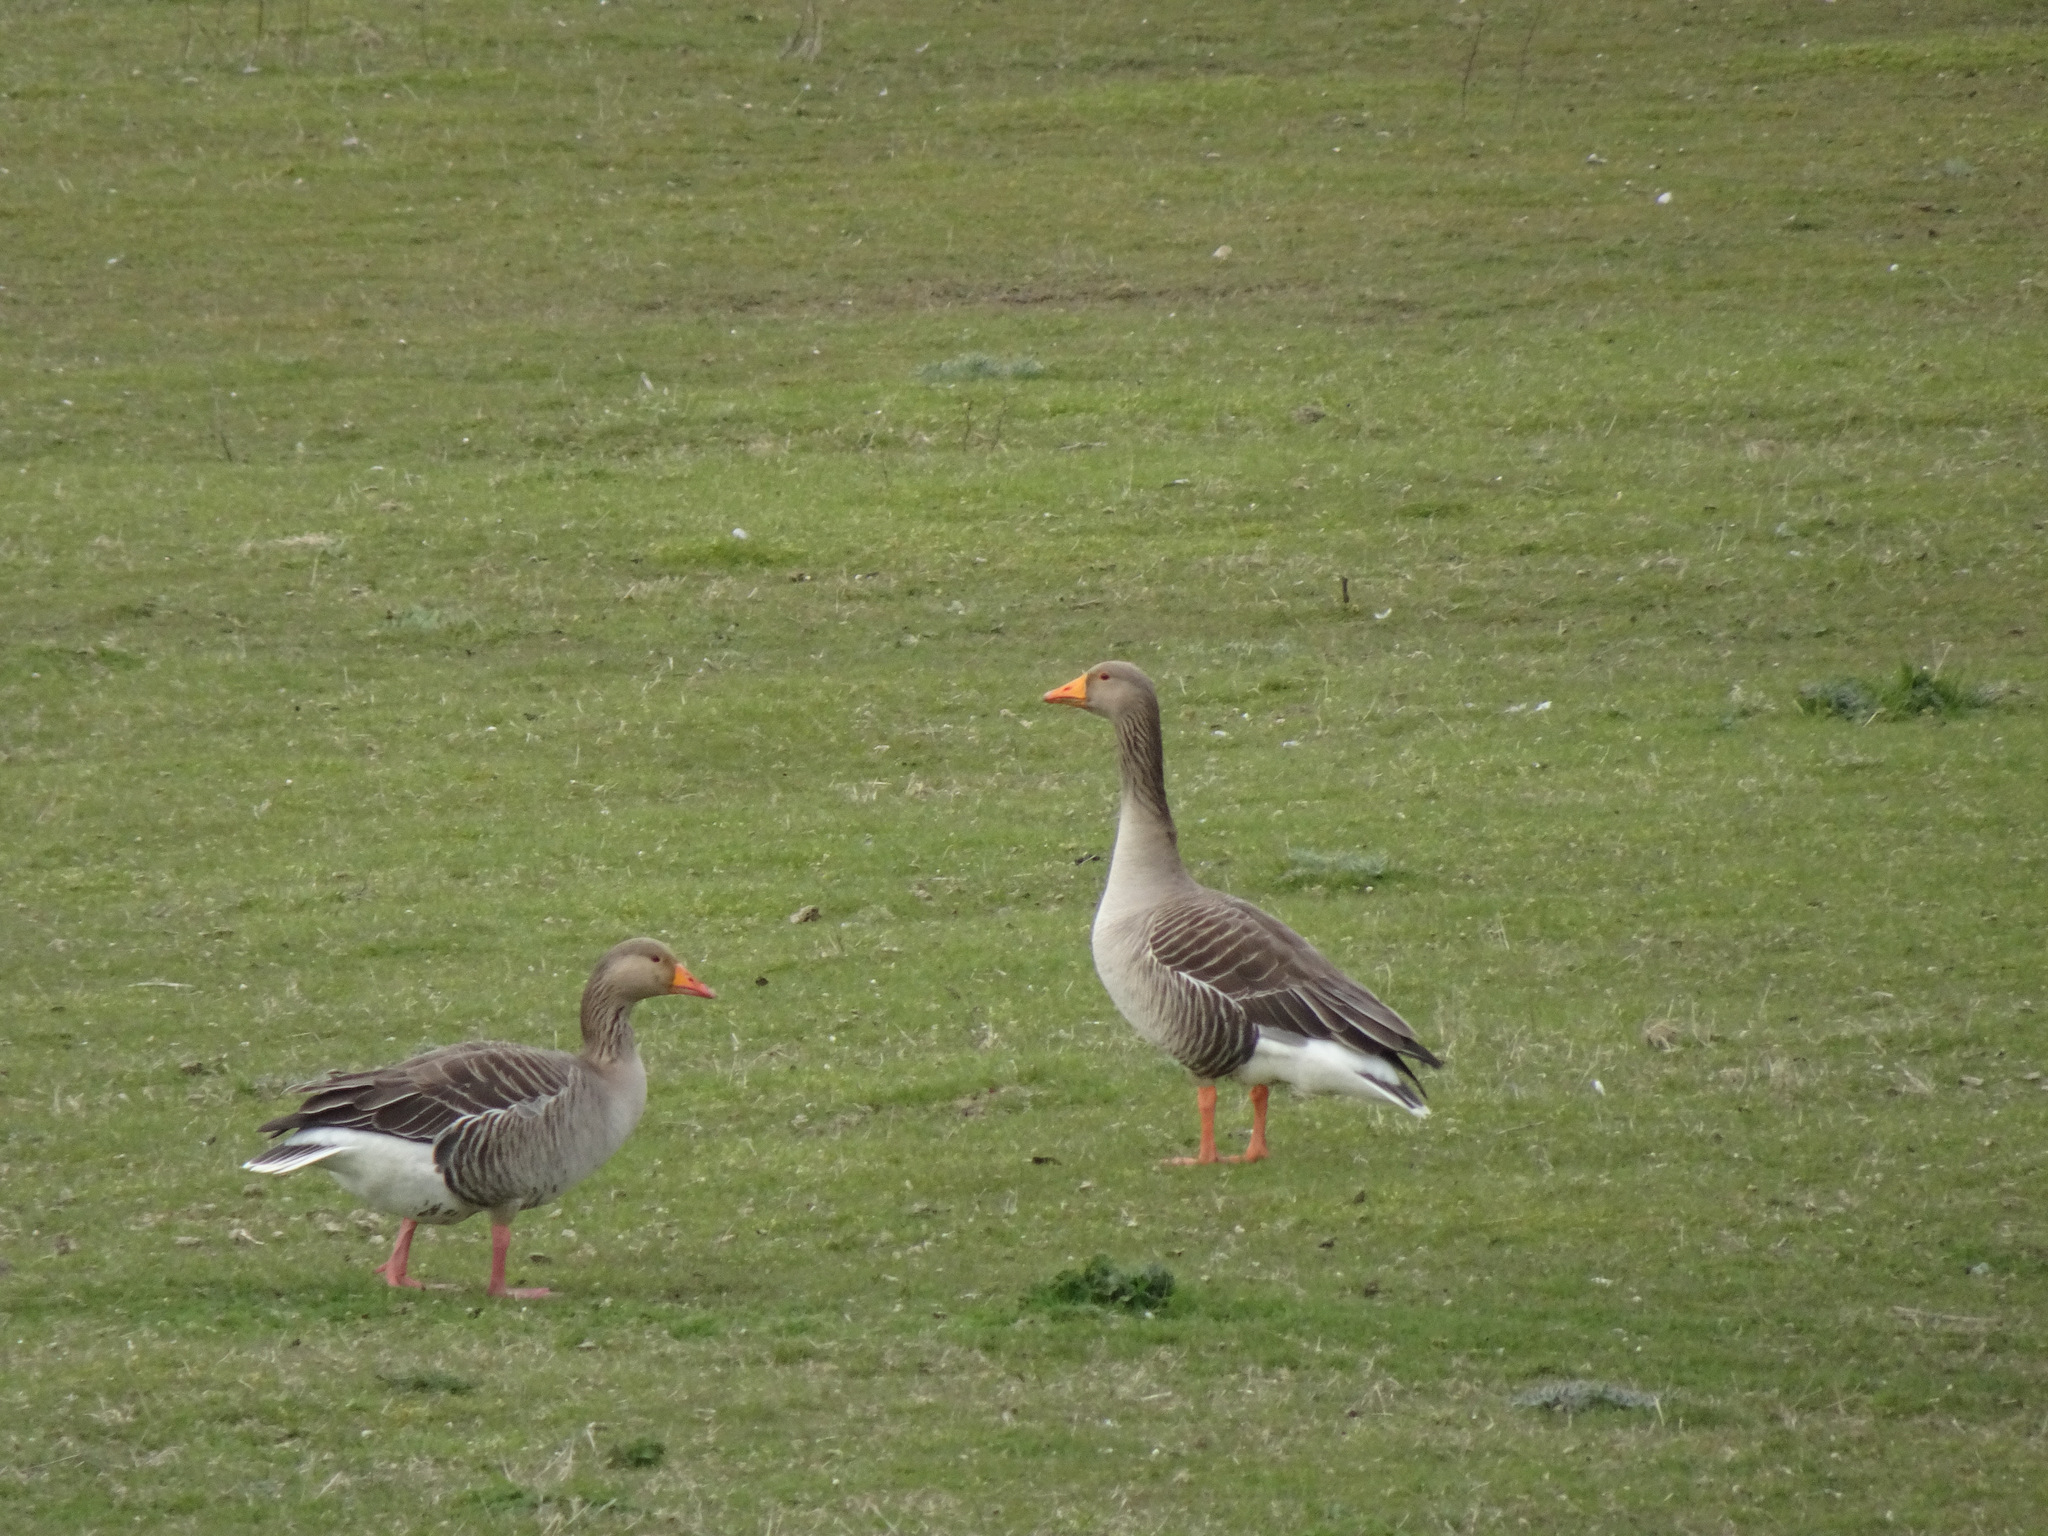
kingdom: Animalia
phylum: Chordata
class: Aves
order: Anseriformes
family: Anatidae
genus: Anser
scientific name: Anser anser
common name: Greylag goose
